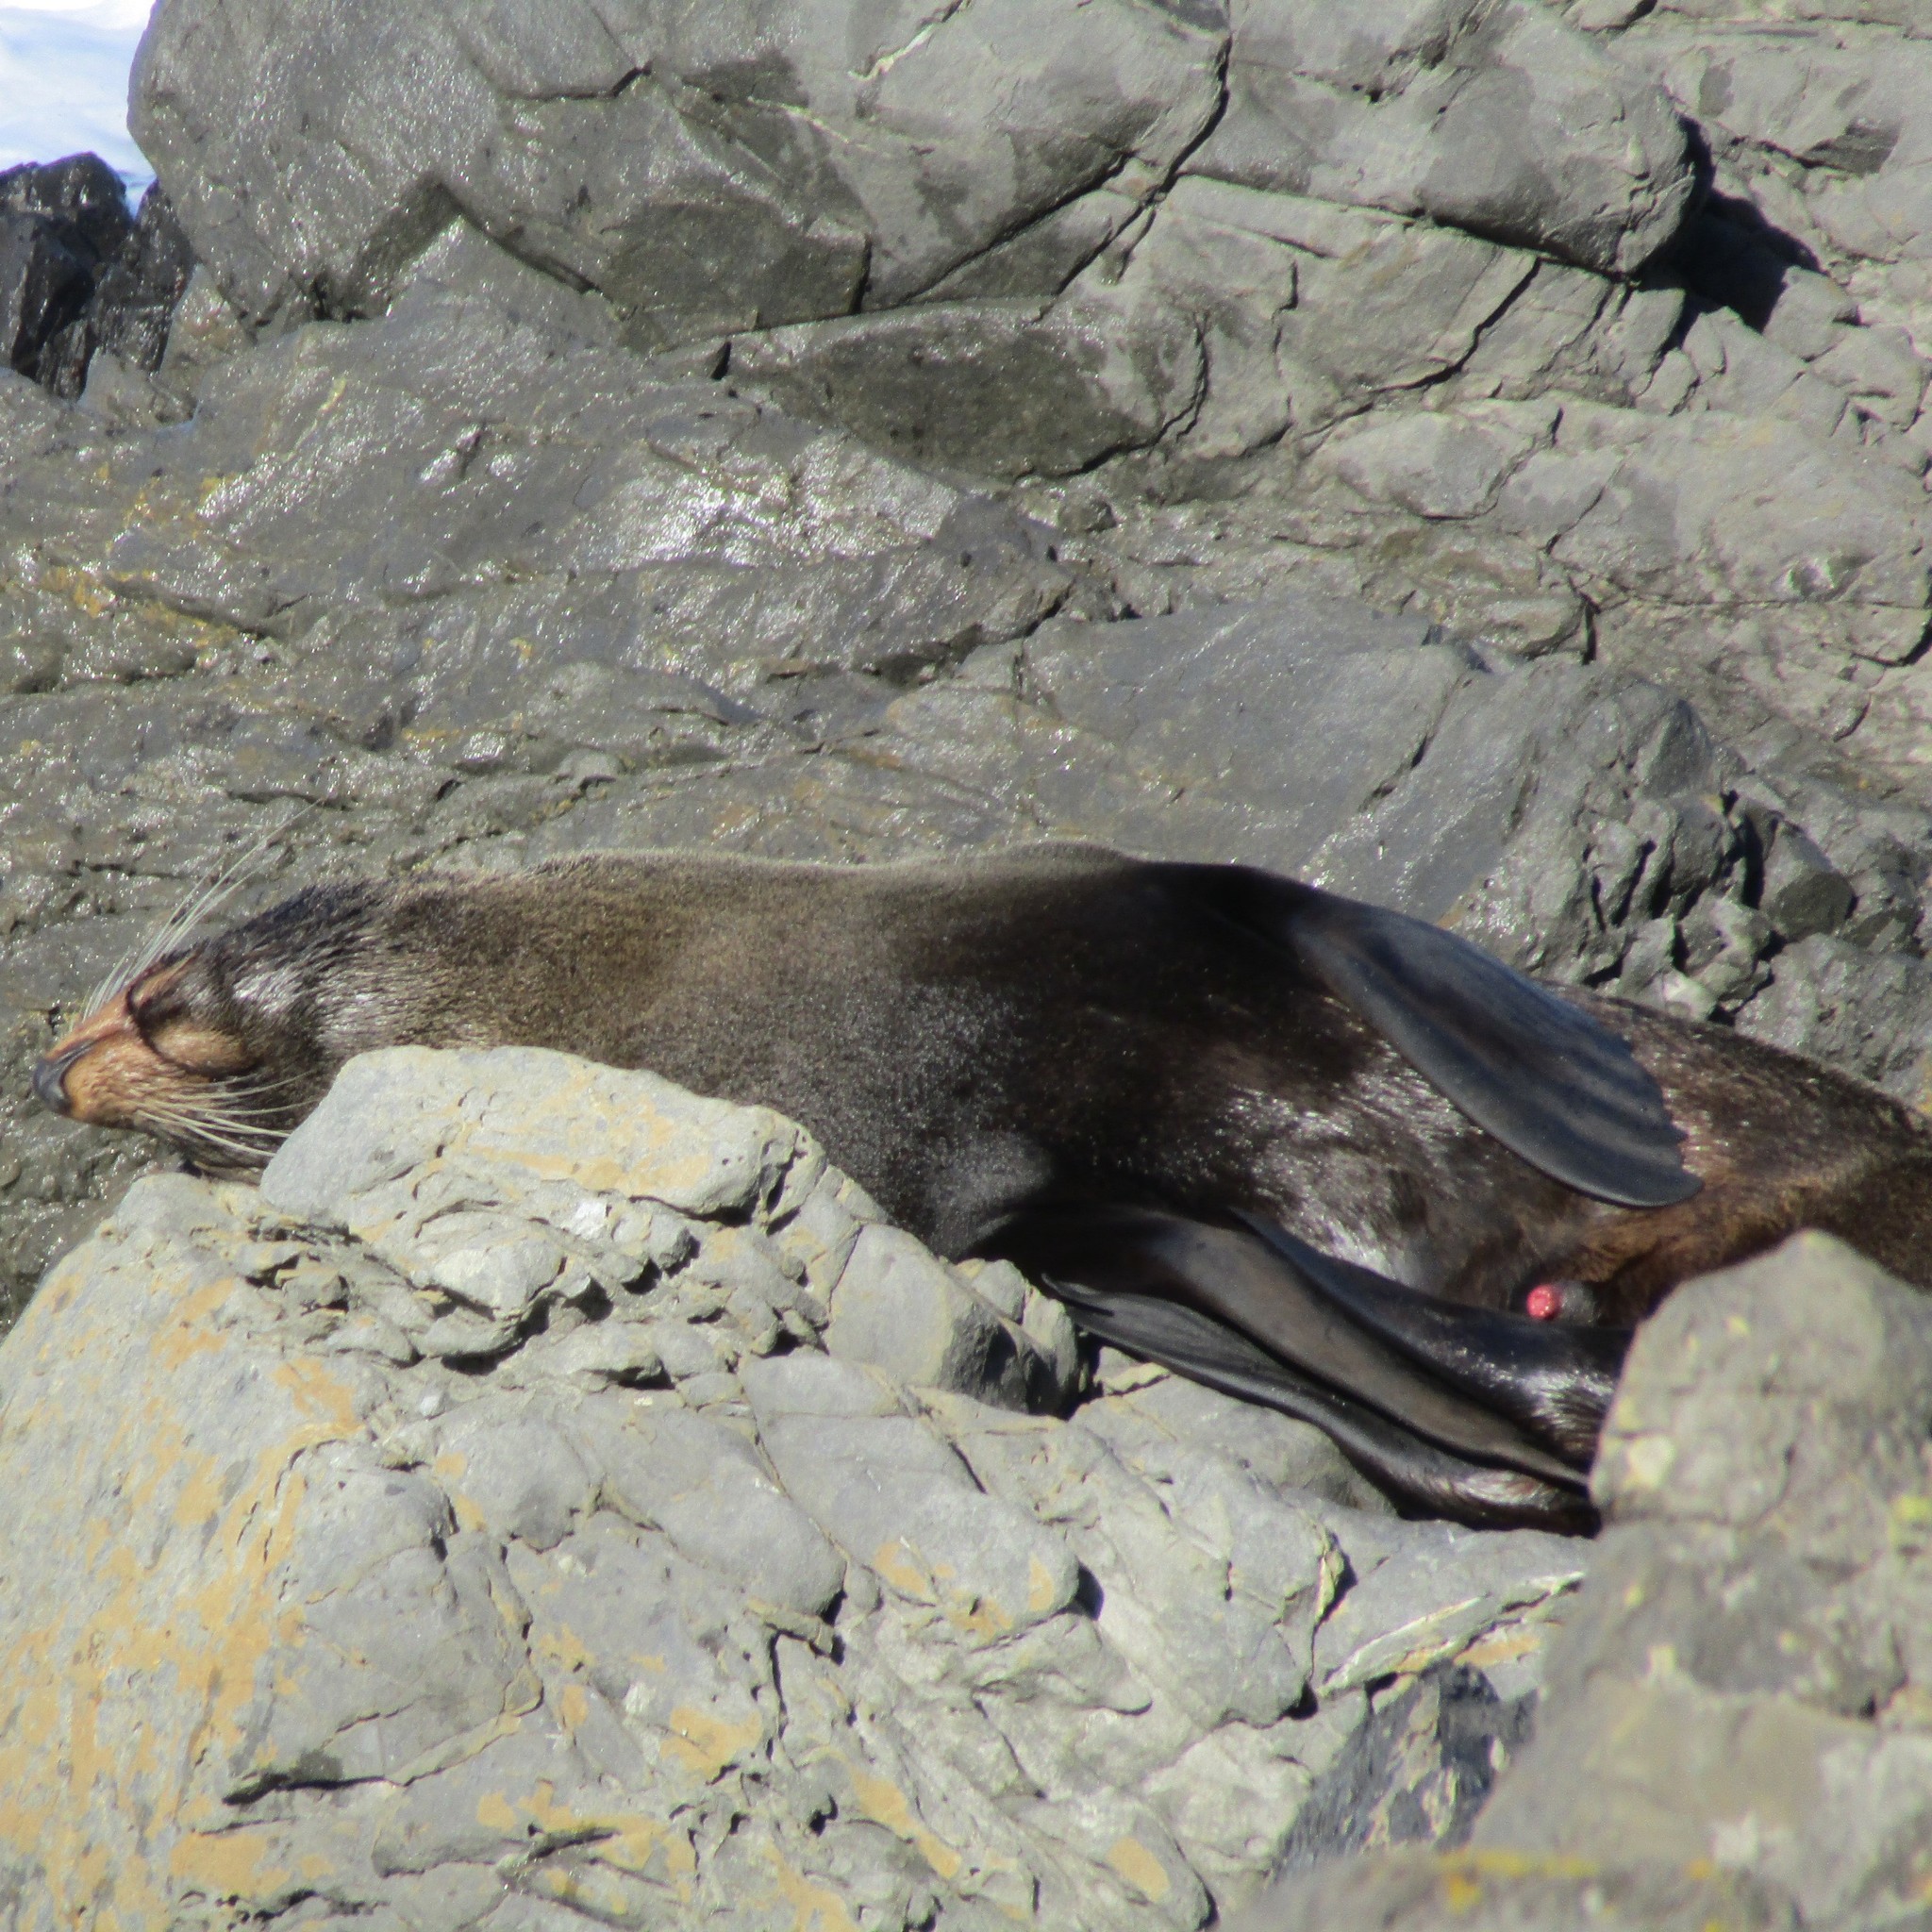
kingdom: Animalia
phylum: Chordata
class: Mammalia
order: Carnivora
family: Otariidae
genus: Arctocephalus
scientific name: Arctocephalus forsteri
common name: New zealand fur seal
